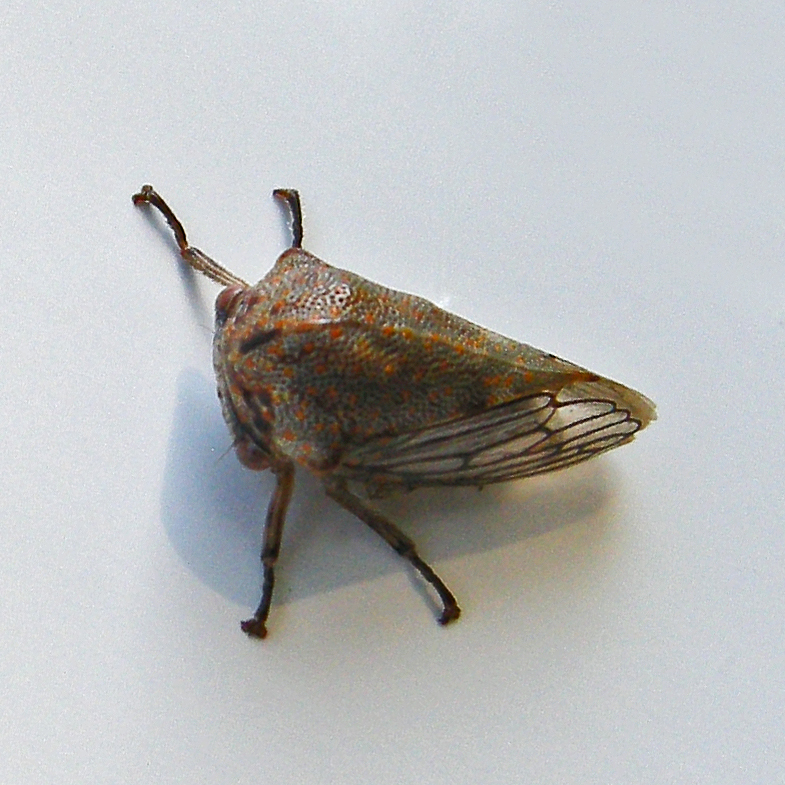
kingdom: Animalia
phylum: Arthropoda
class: Insecta
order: Hemiptera
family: Membracidae
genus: Platycotis
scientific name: Platycotis vittatus
